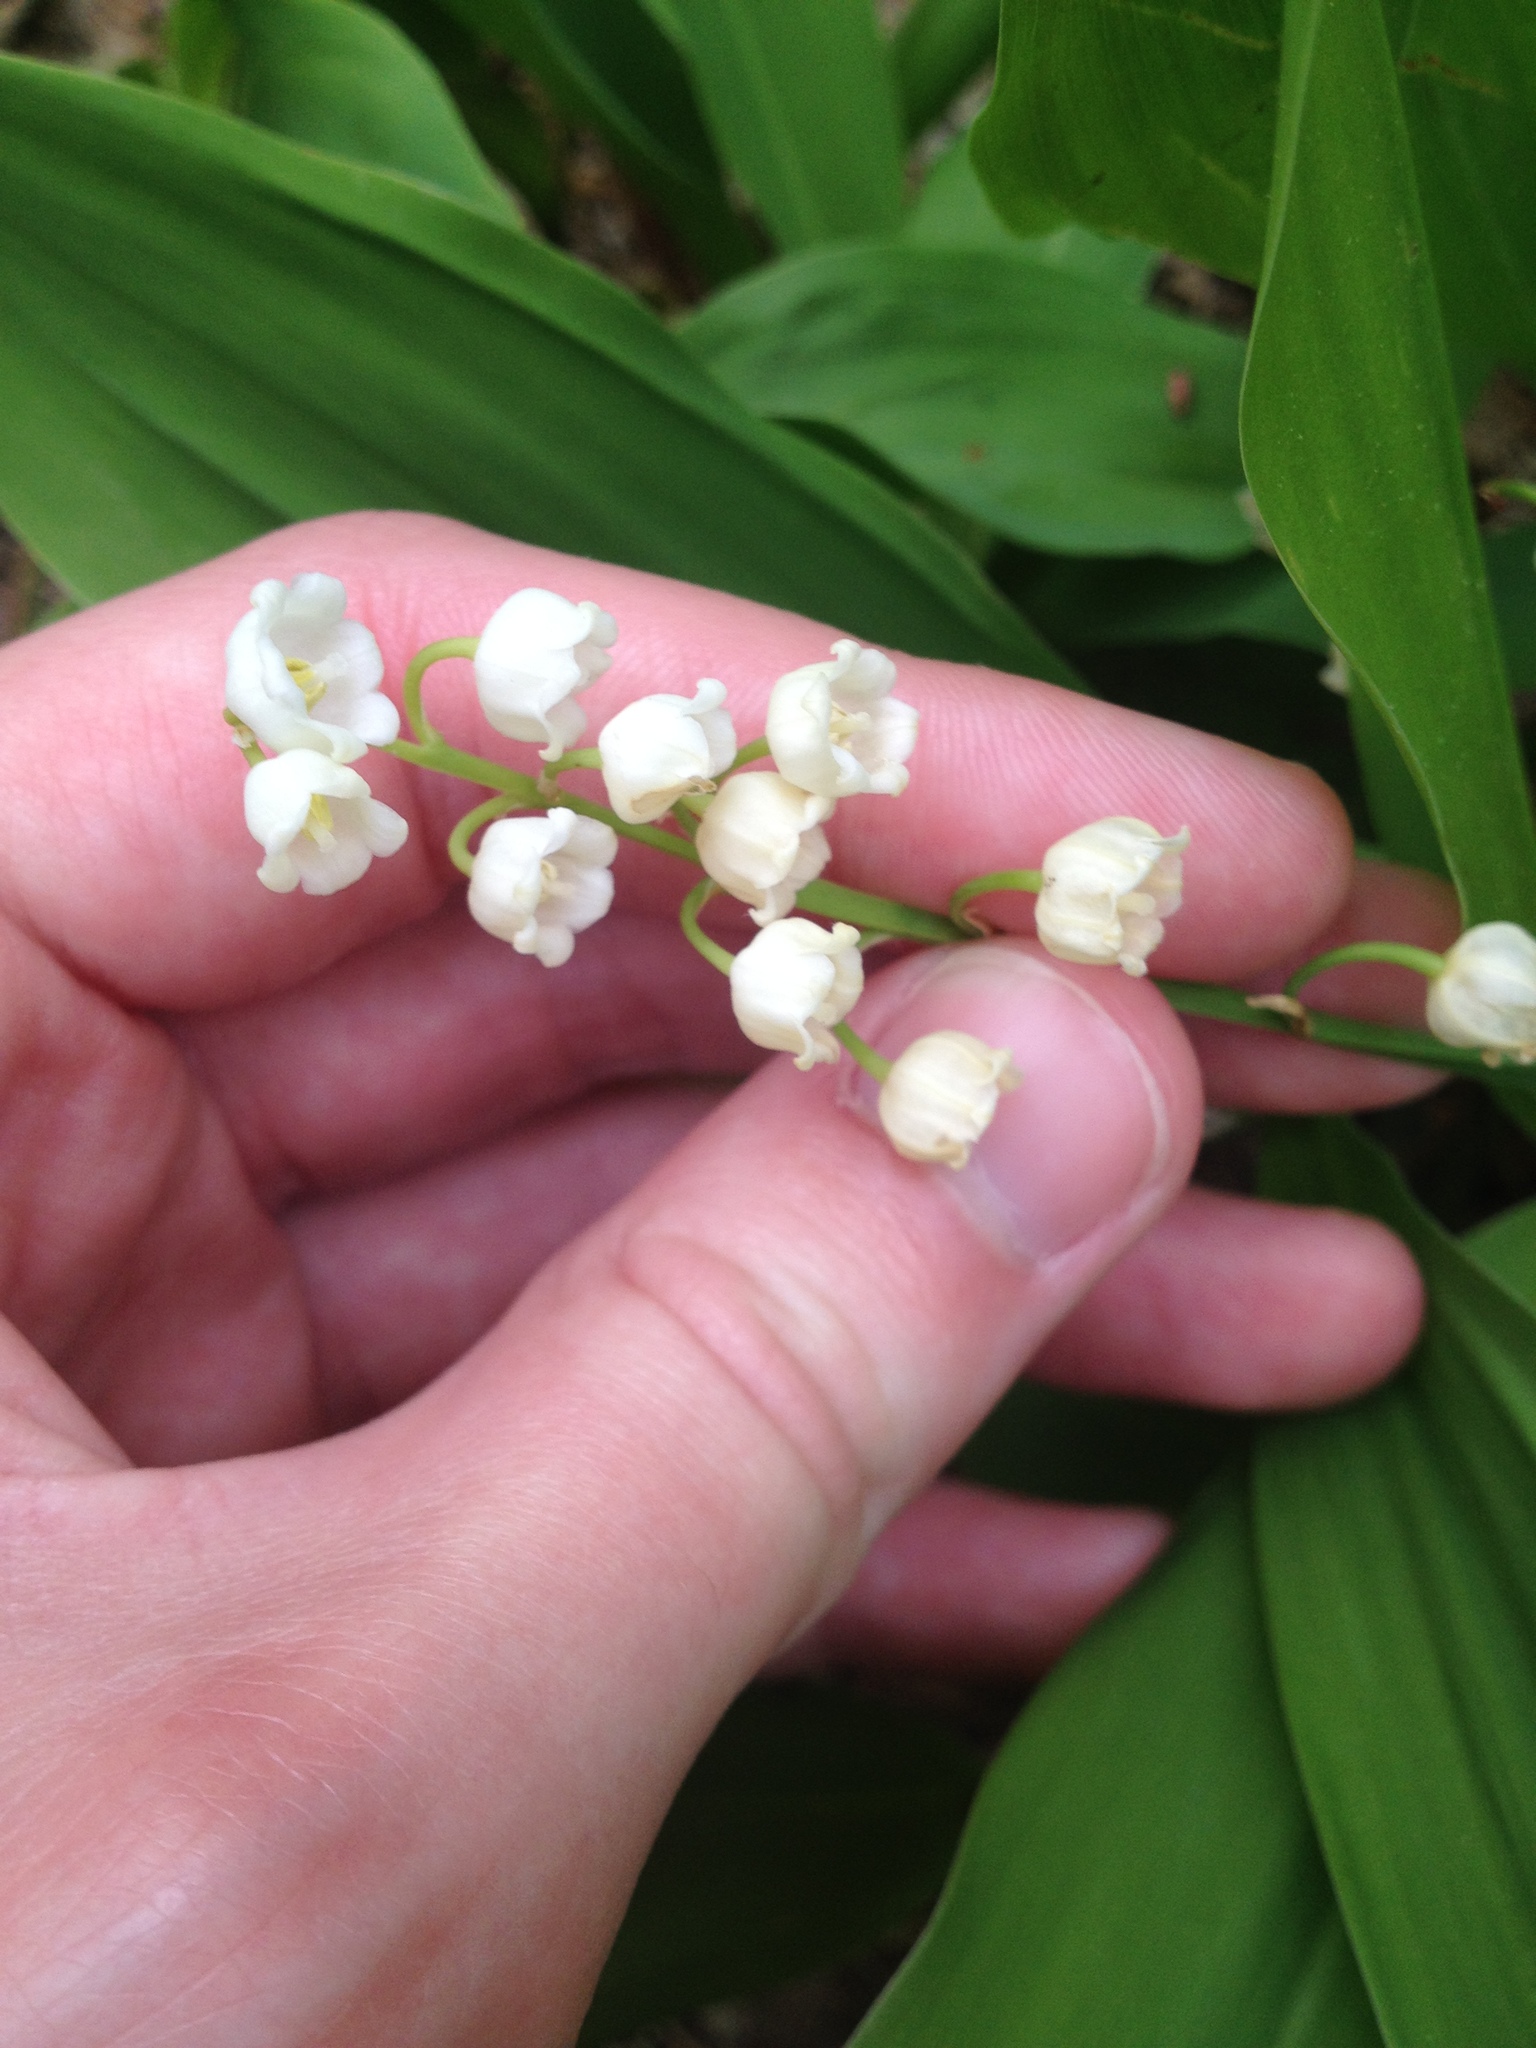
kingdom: Plantae
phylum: Tracheophyta
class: Liliopsida
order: Asparagales
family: Asparagaceae
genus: Convallaria
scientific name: Convallaria majalis
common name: Lily-of-the-valley
